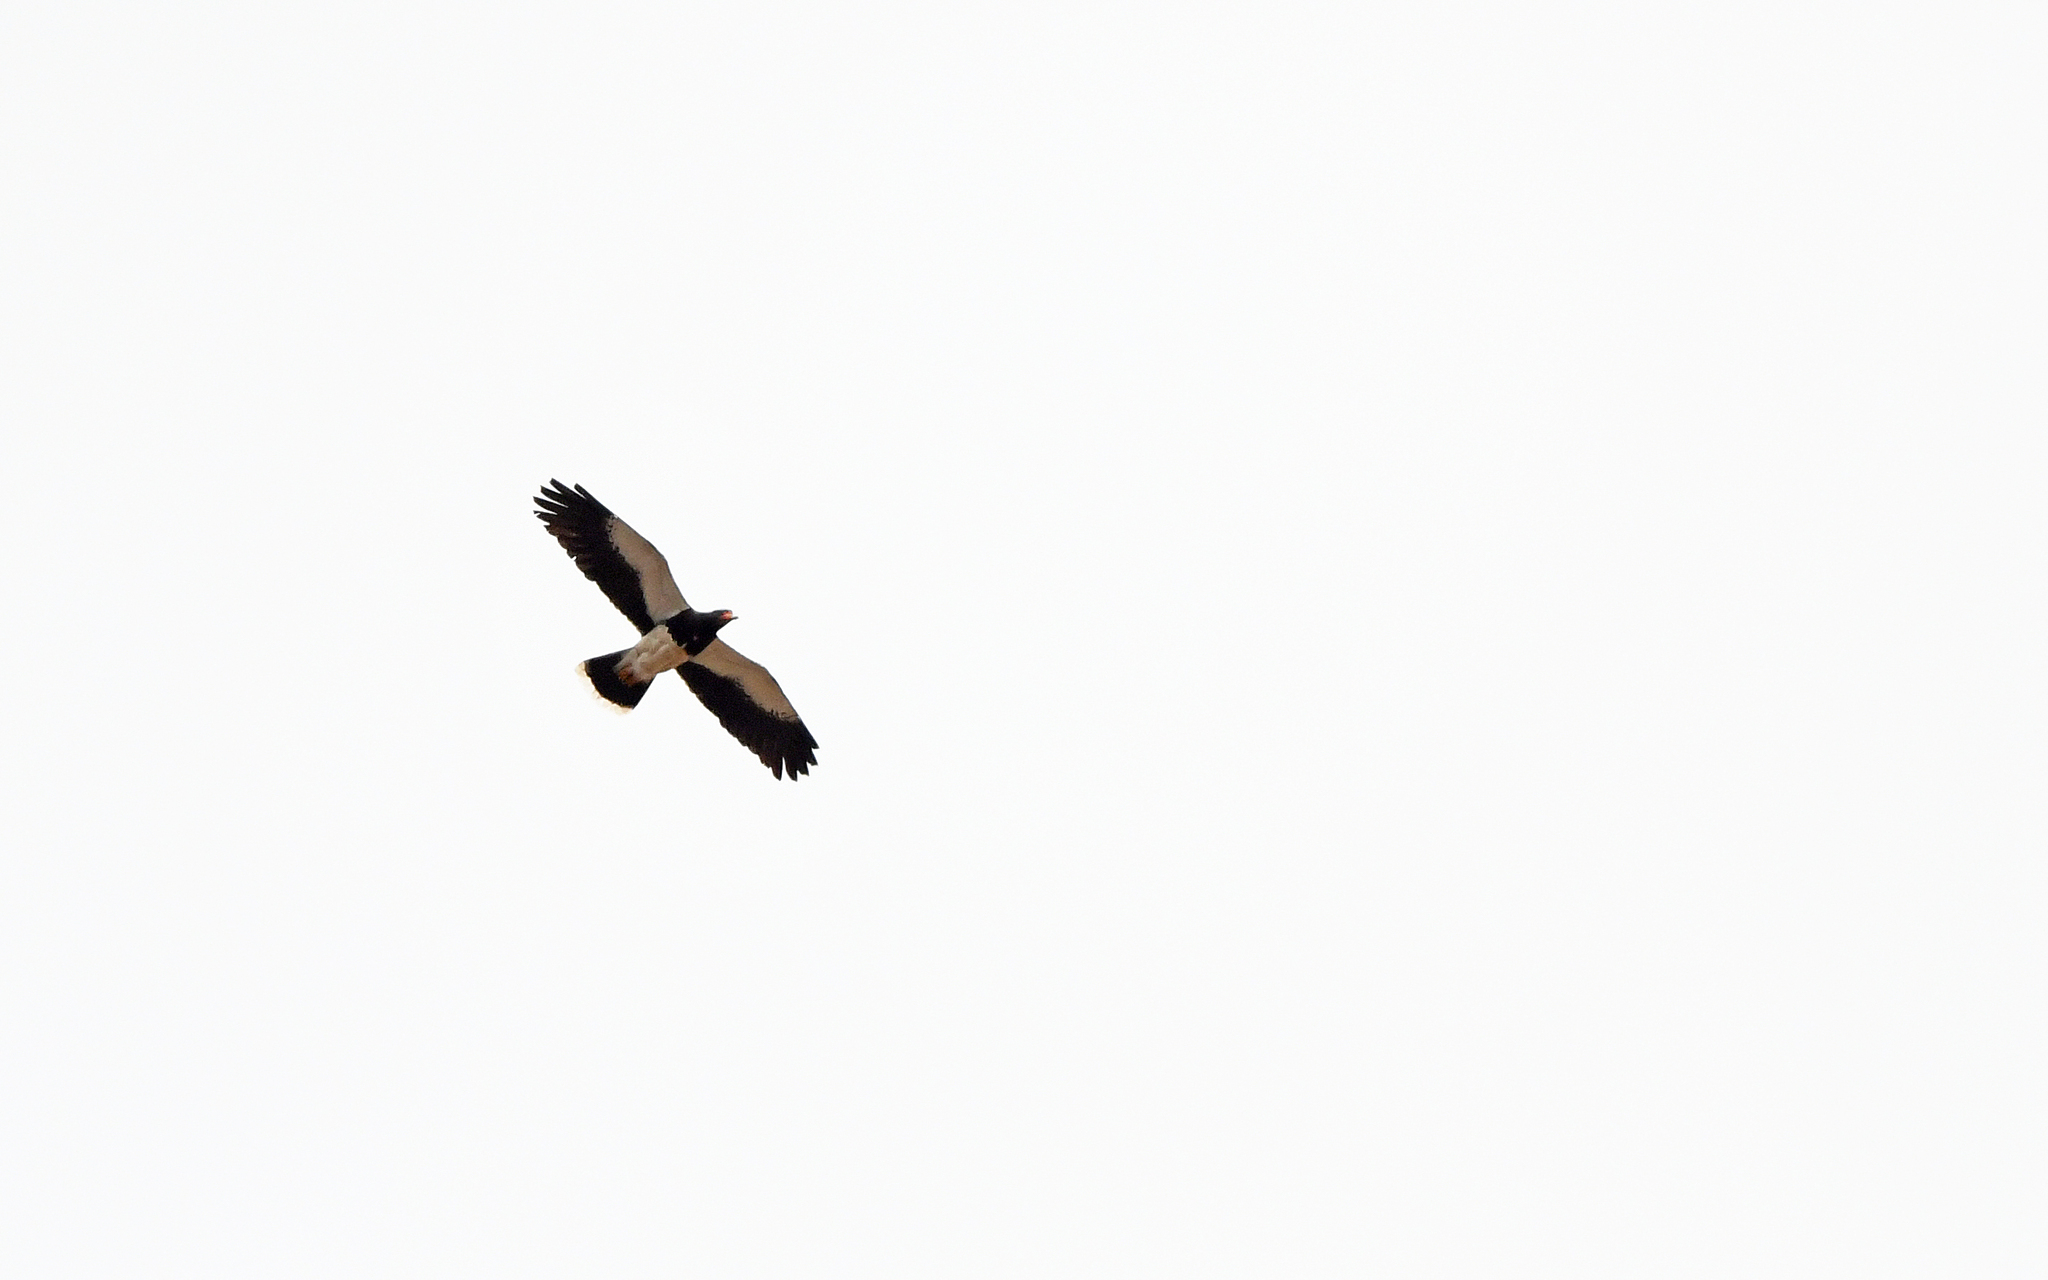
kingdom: Animalia
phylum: Chordata
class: Aves
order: Falconiformes
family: Falconidae
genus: Daptrius
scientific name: Daptrius
